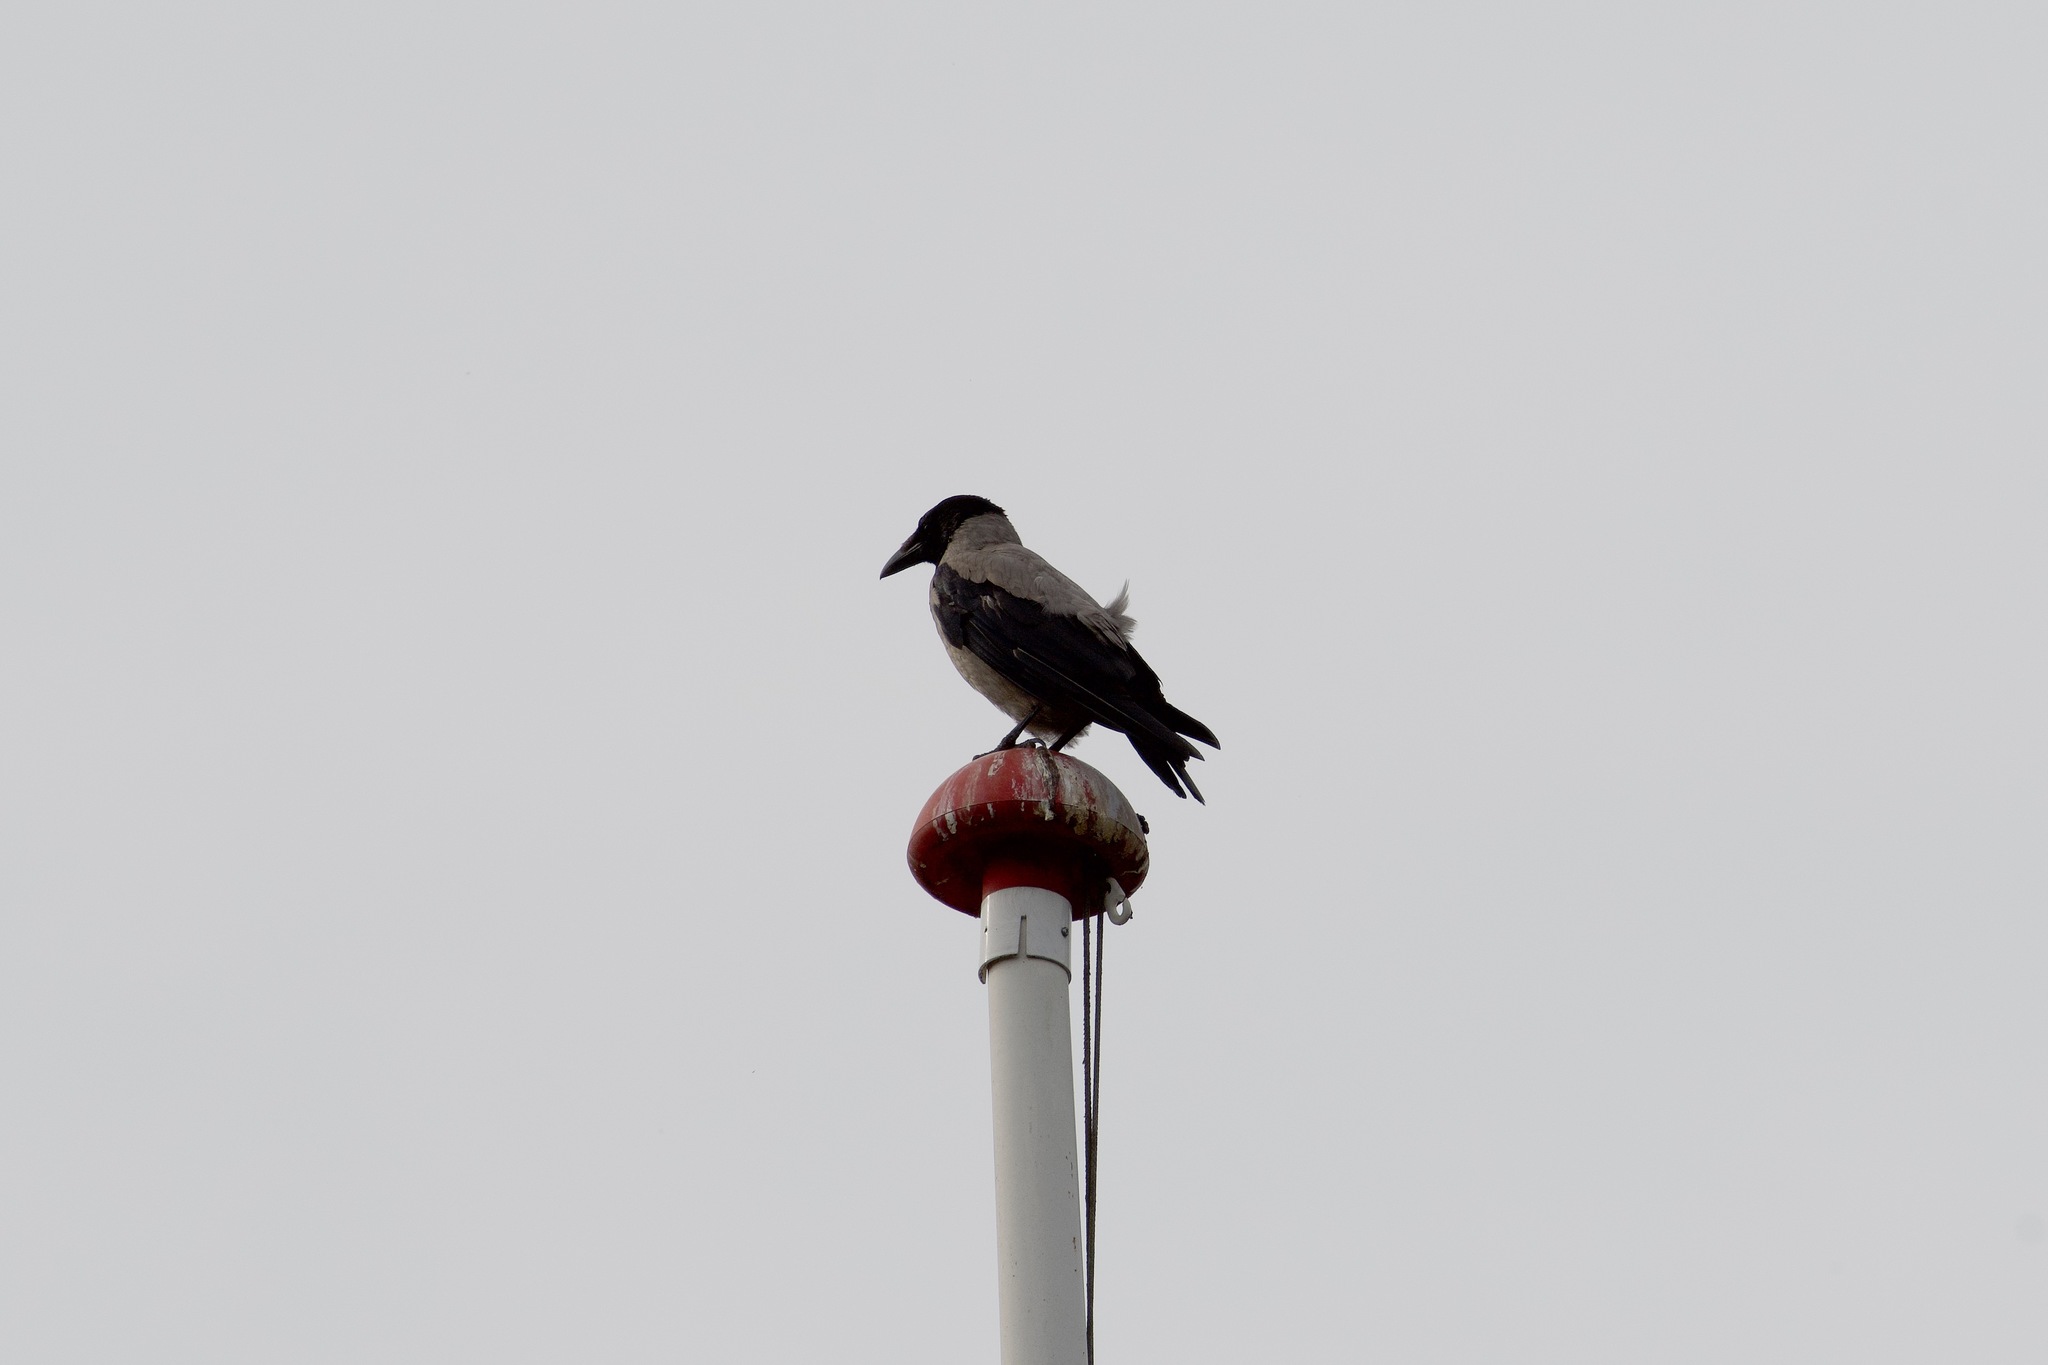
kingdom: Animalia
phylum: Chordata
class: Aves
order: Passeriformes
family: Corvidae
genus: Corvus
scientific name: Corvus cornix
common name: Hooded crow
